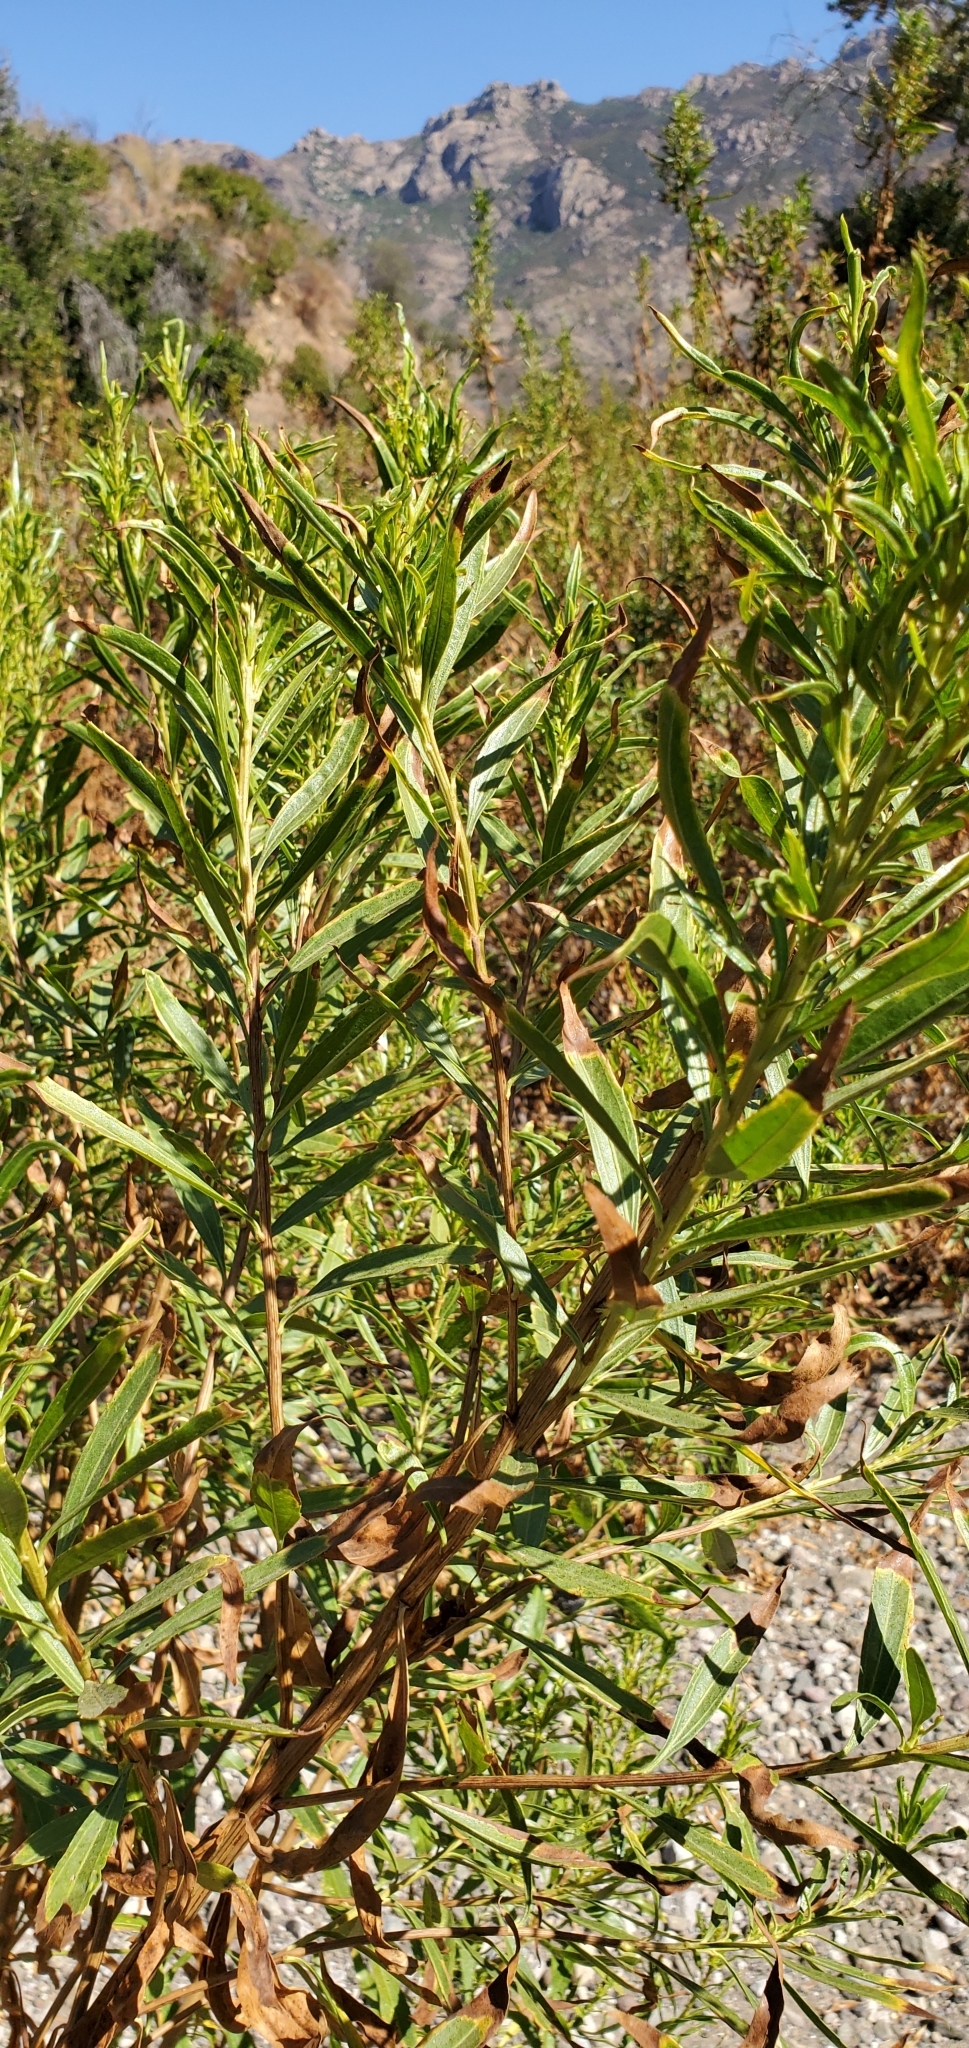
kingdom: Plantae
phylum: Tracheophyta
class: Magnoliopsida
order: Asterales
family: Asteraceae
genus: Baccharis
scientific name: Baccharis salicifolia
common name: Sticky baccharis
